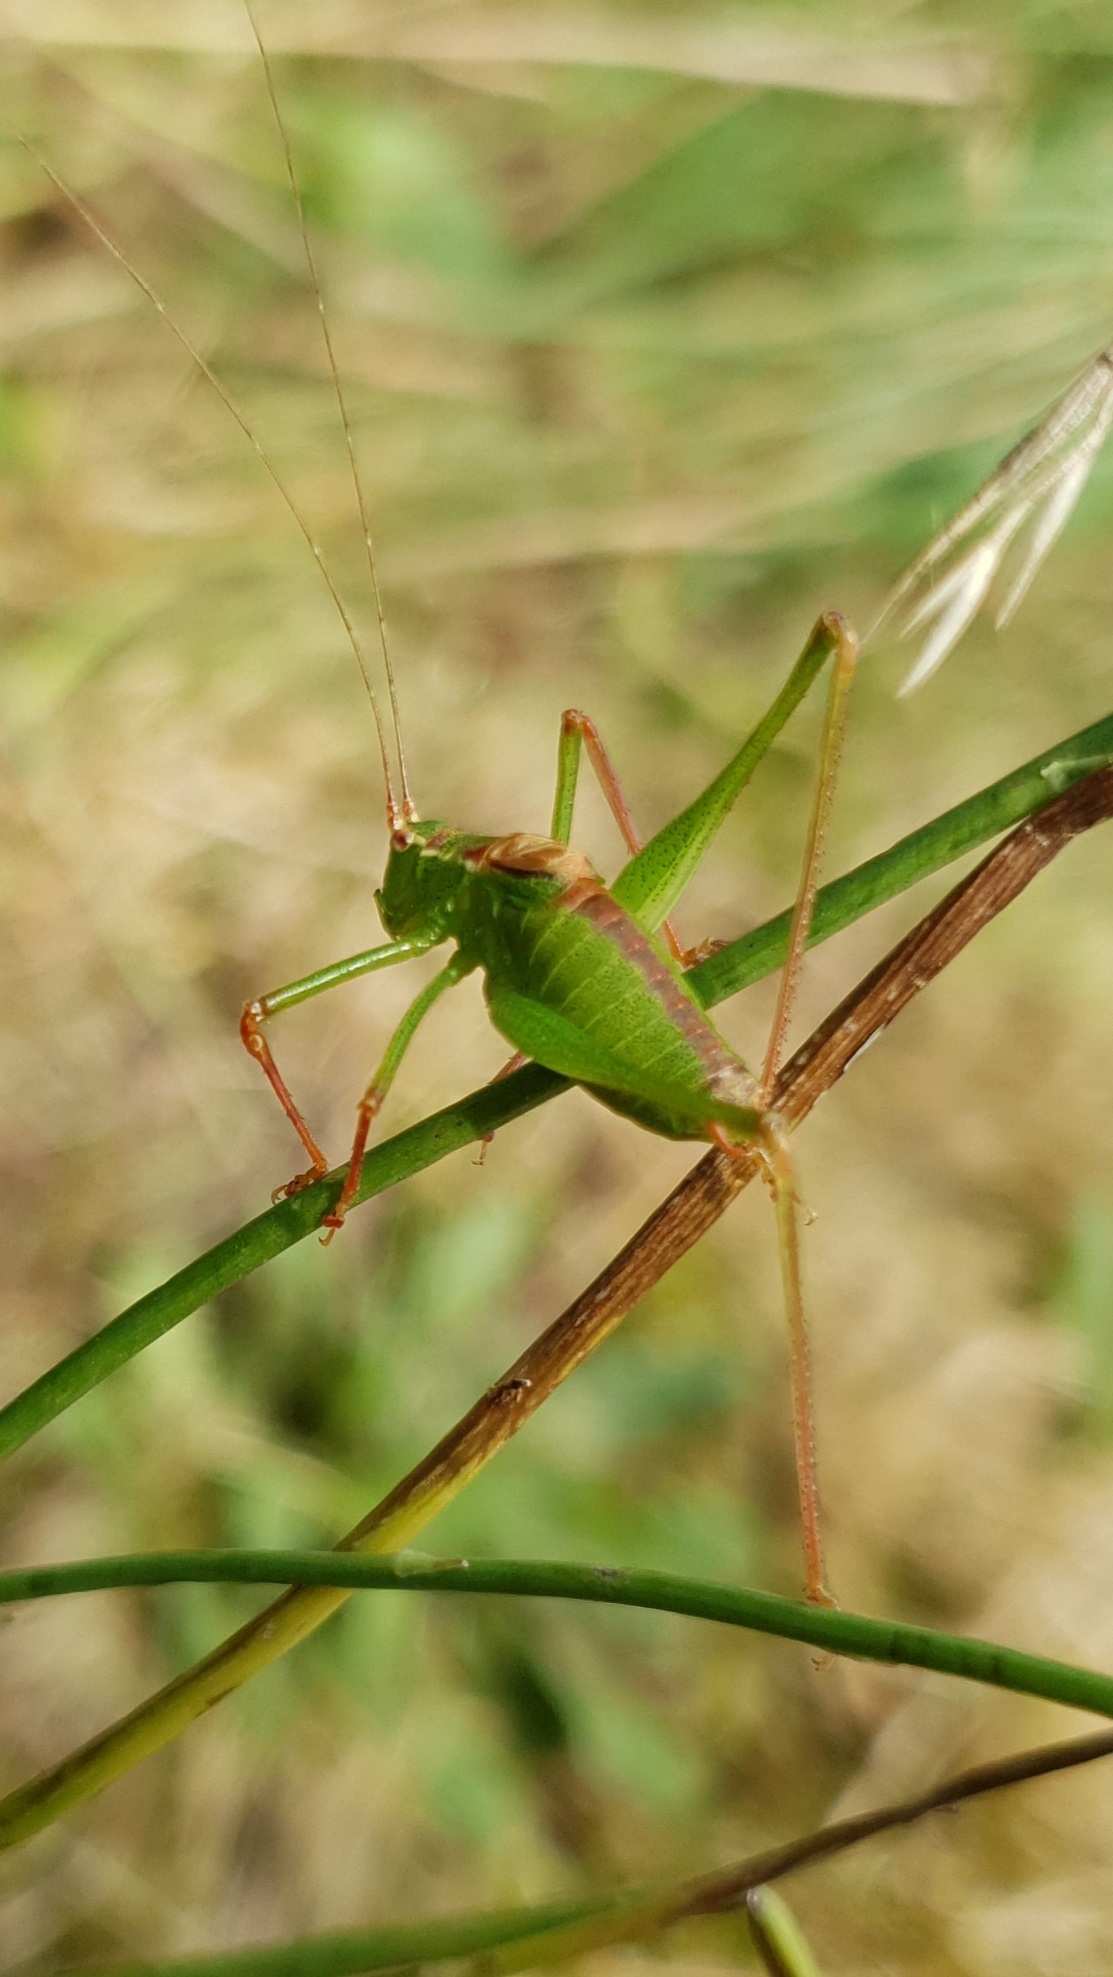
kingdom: Animalia
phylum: Arthropoda
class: Insecta
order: Orthoptera
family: Tettigoniidae
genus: Leptophyes
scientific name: Leptophyes punctatissima
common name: Speckled bush-cricket
